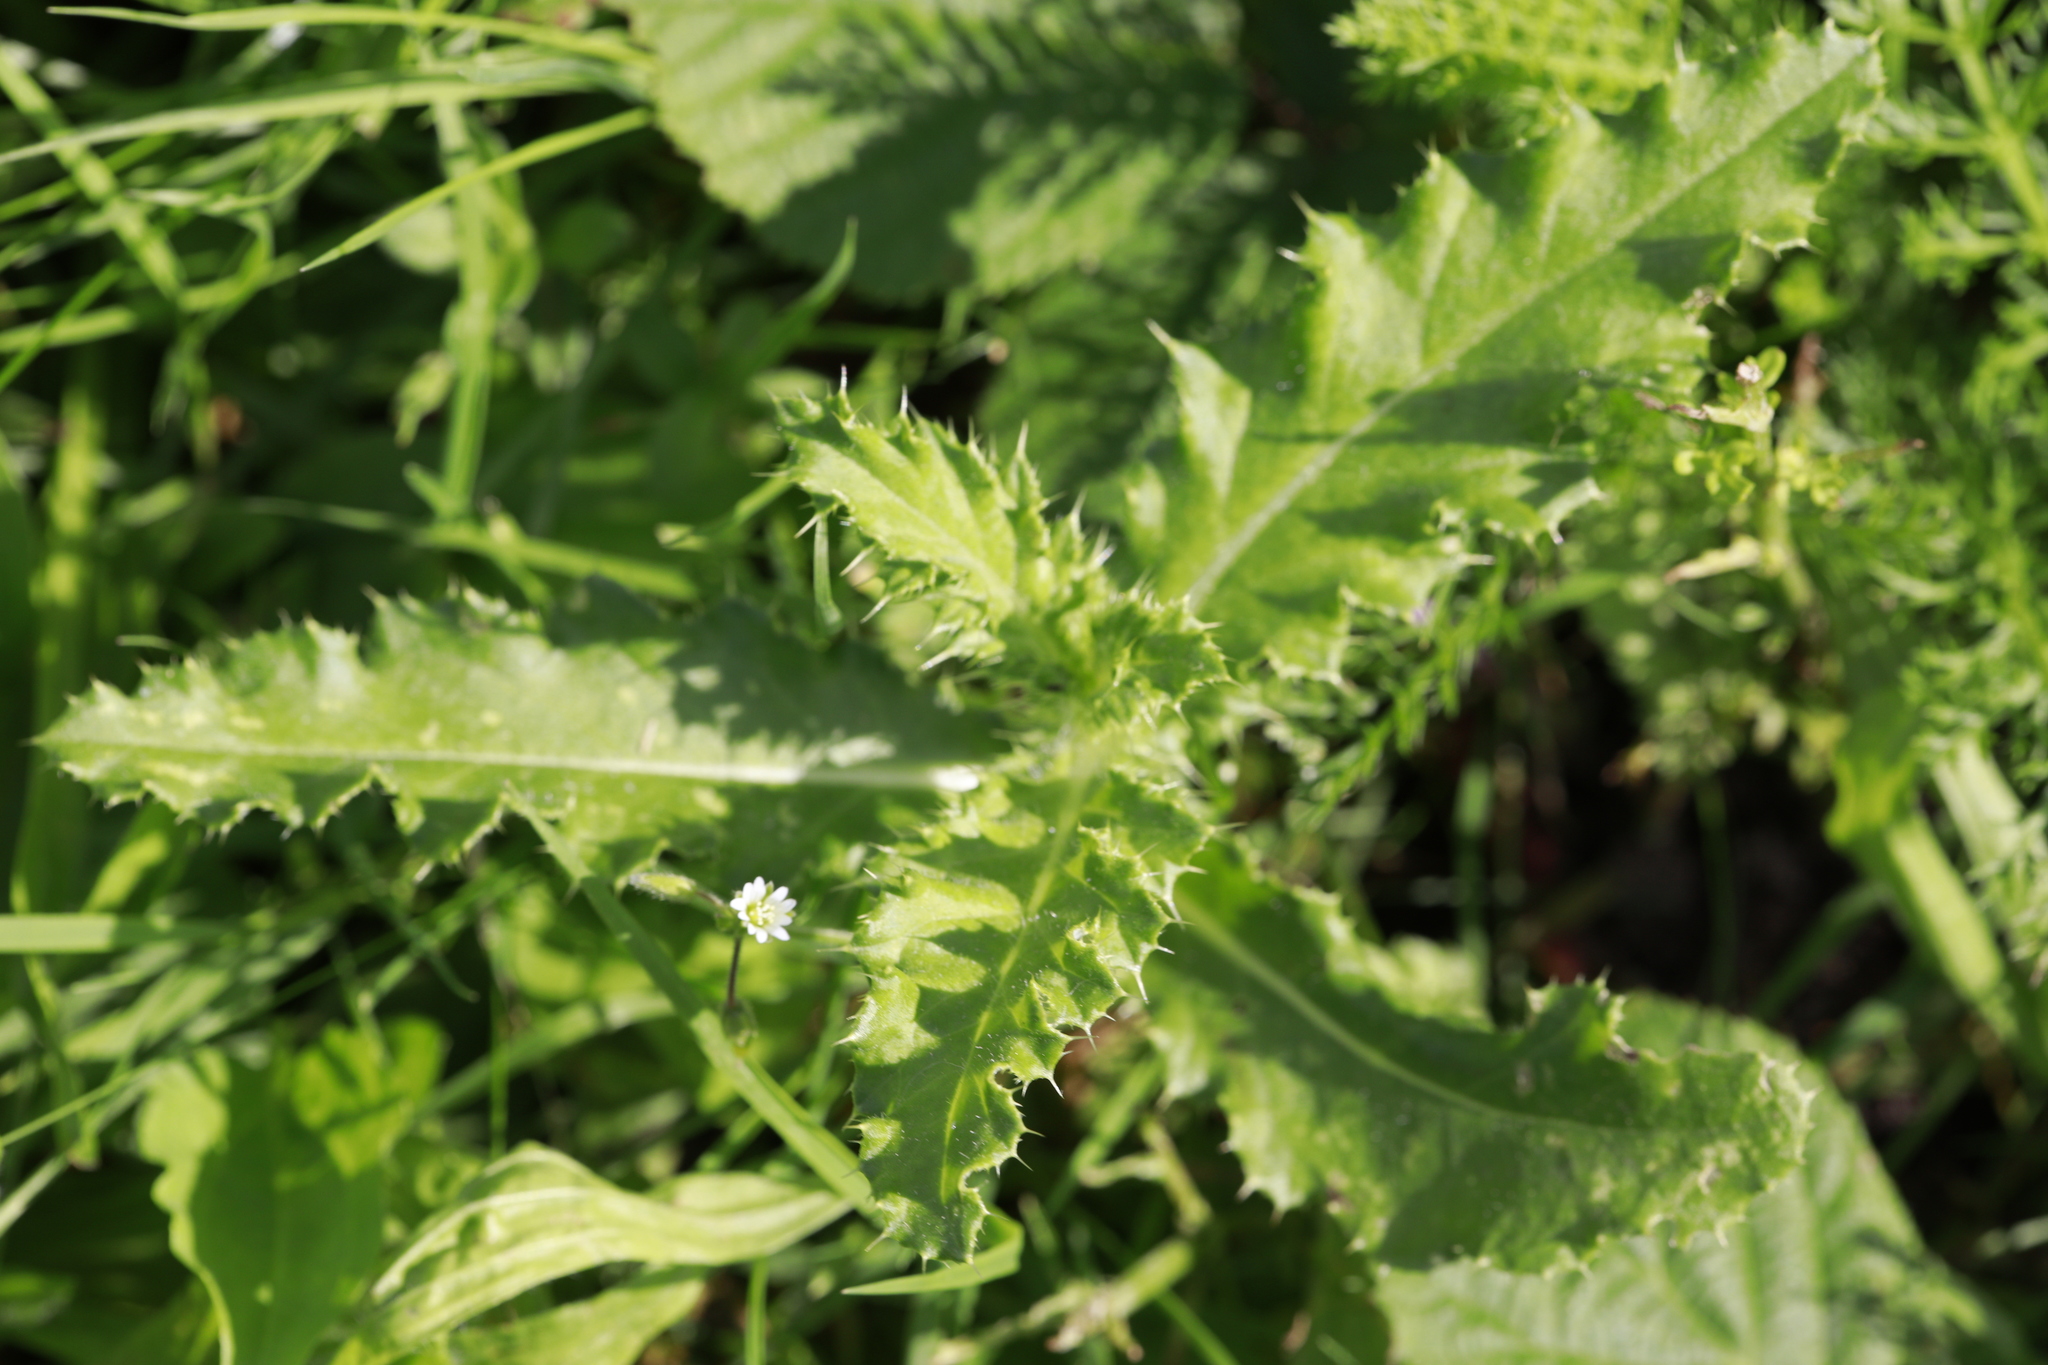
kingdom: Plantae
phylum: Tracheophyta
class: Magnoliopsida
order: Asterales
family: Asteraceae
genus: Cirsium
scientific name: Cirsium arvense
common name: Creeping thistle
